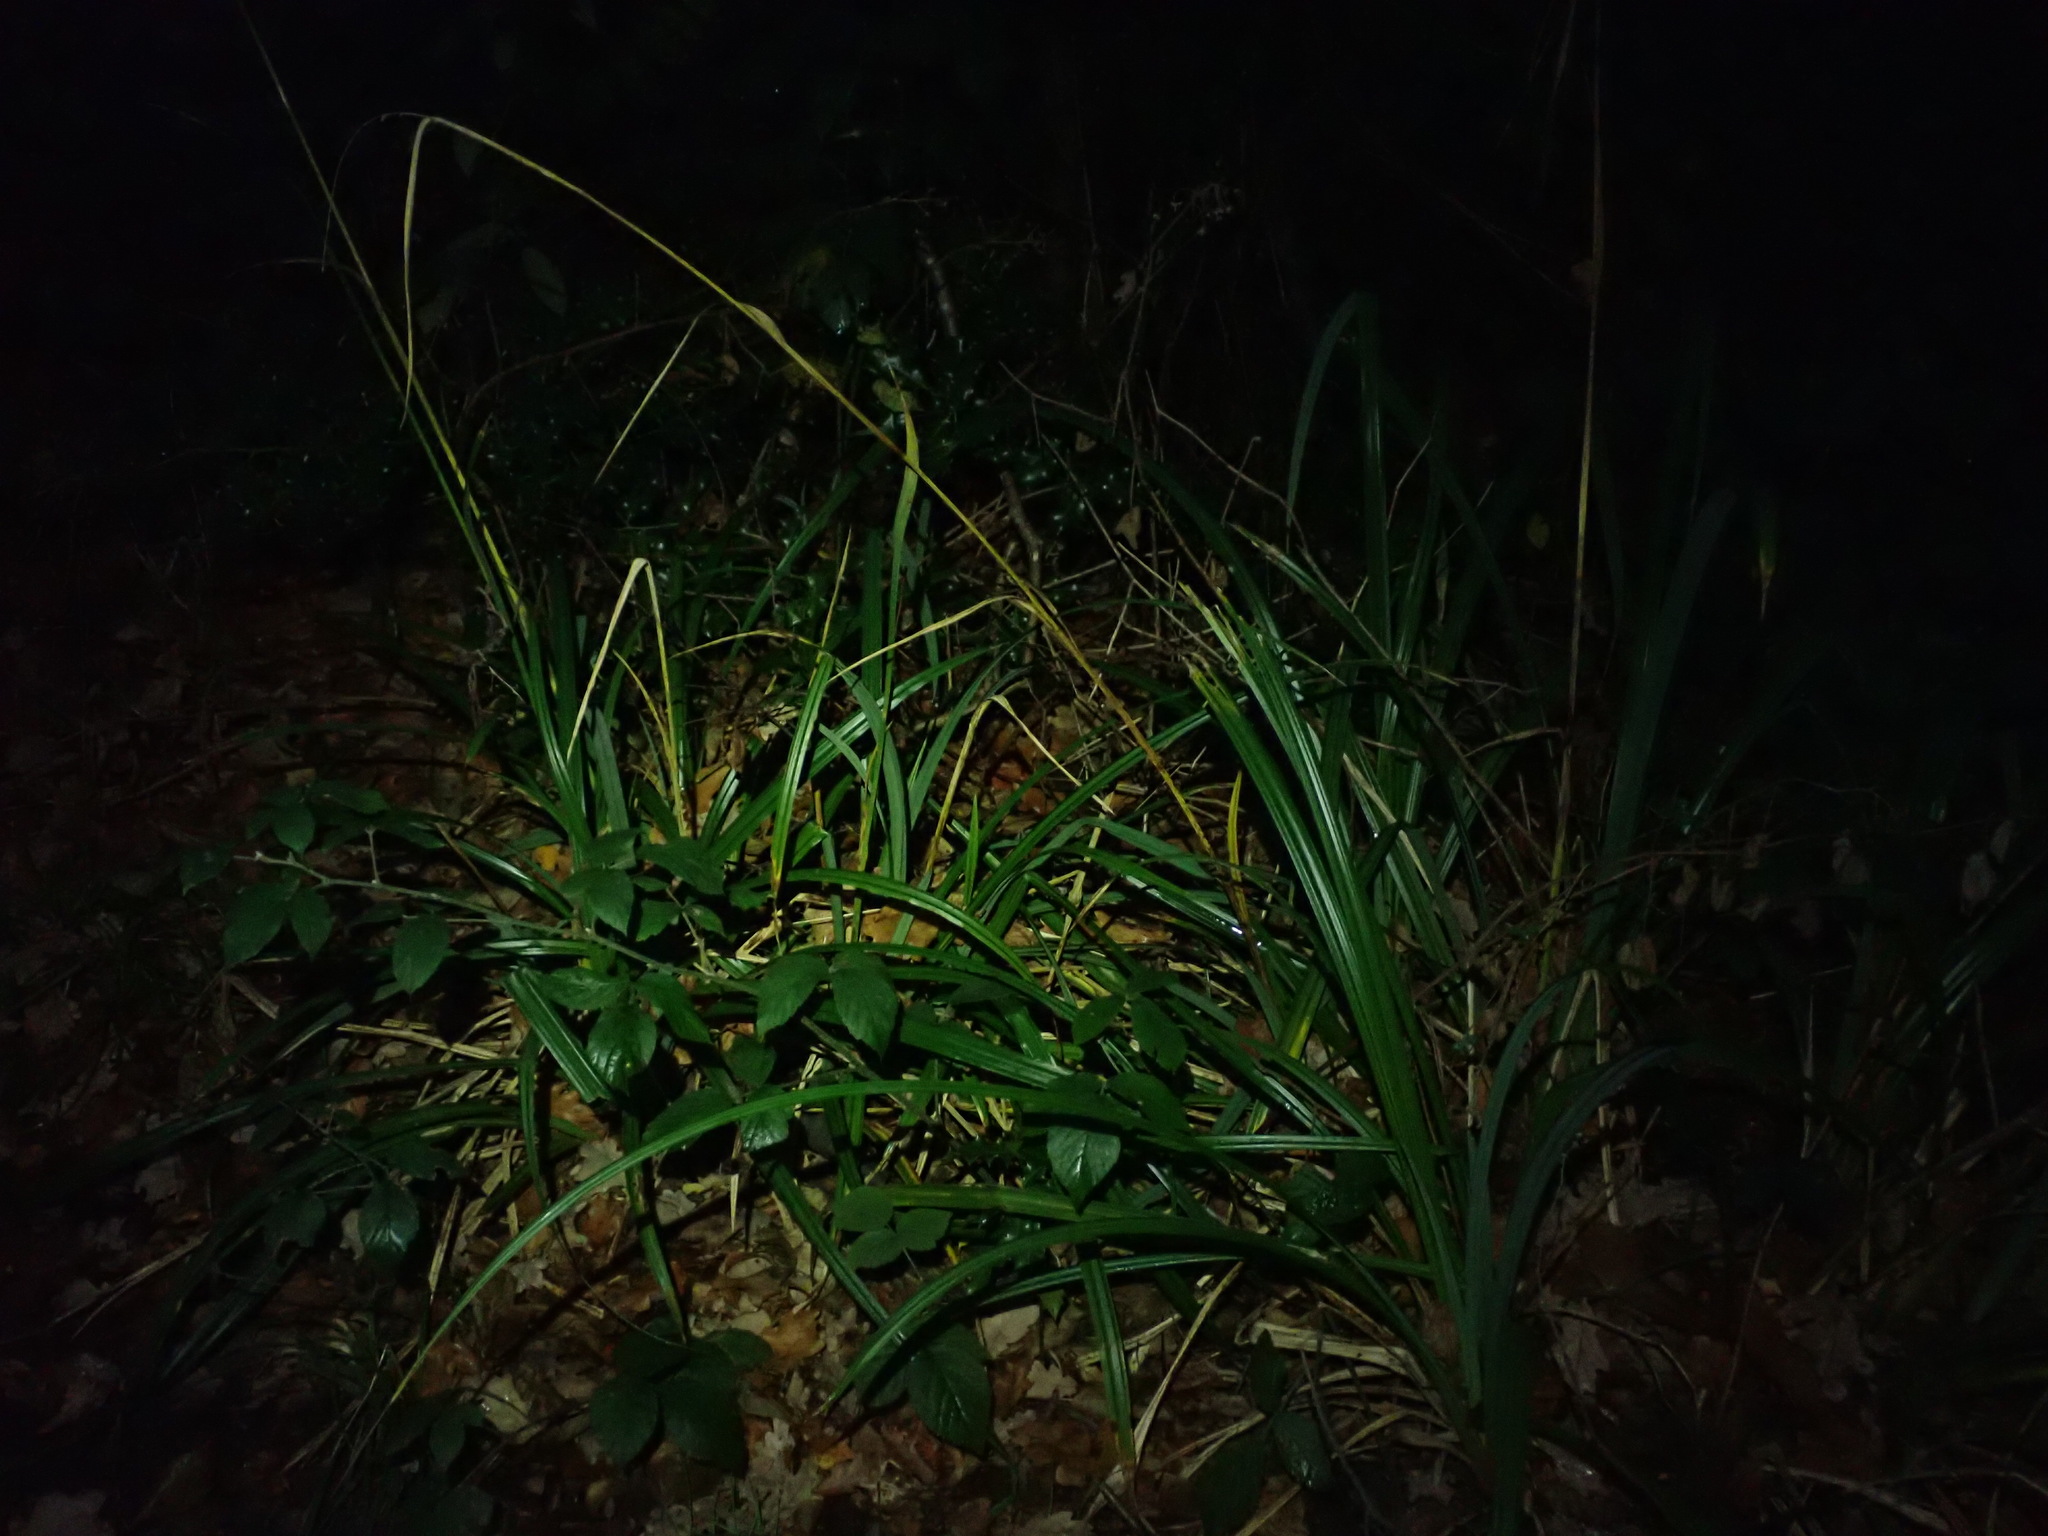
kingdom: Plantae
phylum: Tracheophyta
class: Liliopsida
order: Poales
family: Cyperaceae
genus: Carex
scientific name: Carex pendula
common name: Pendulous sedge
